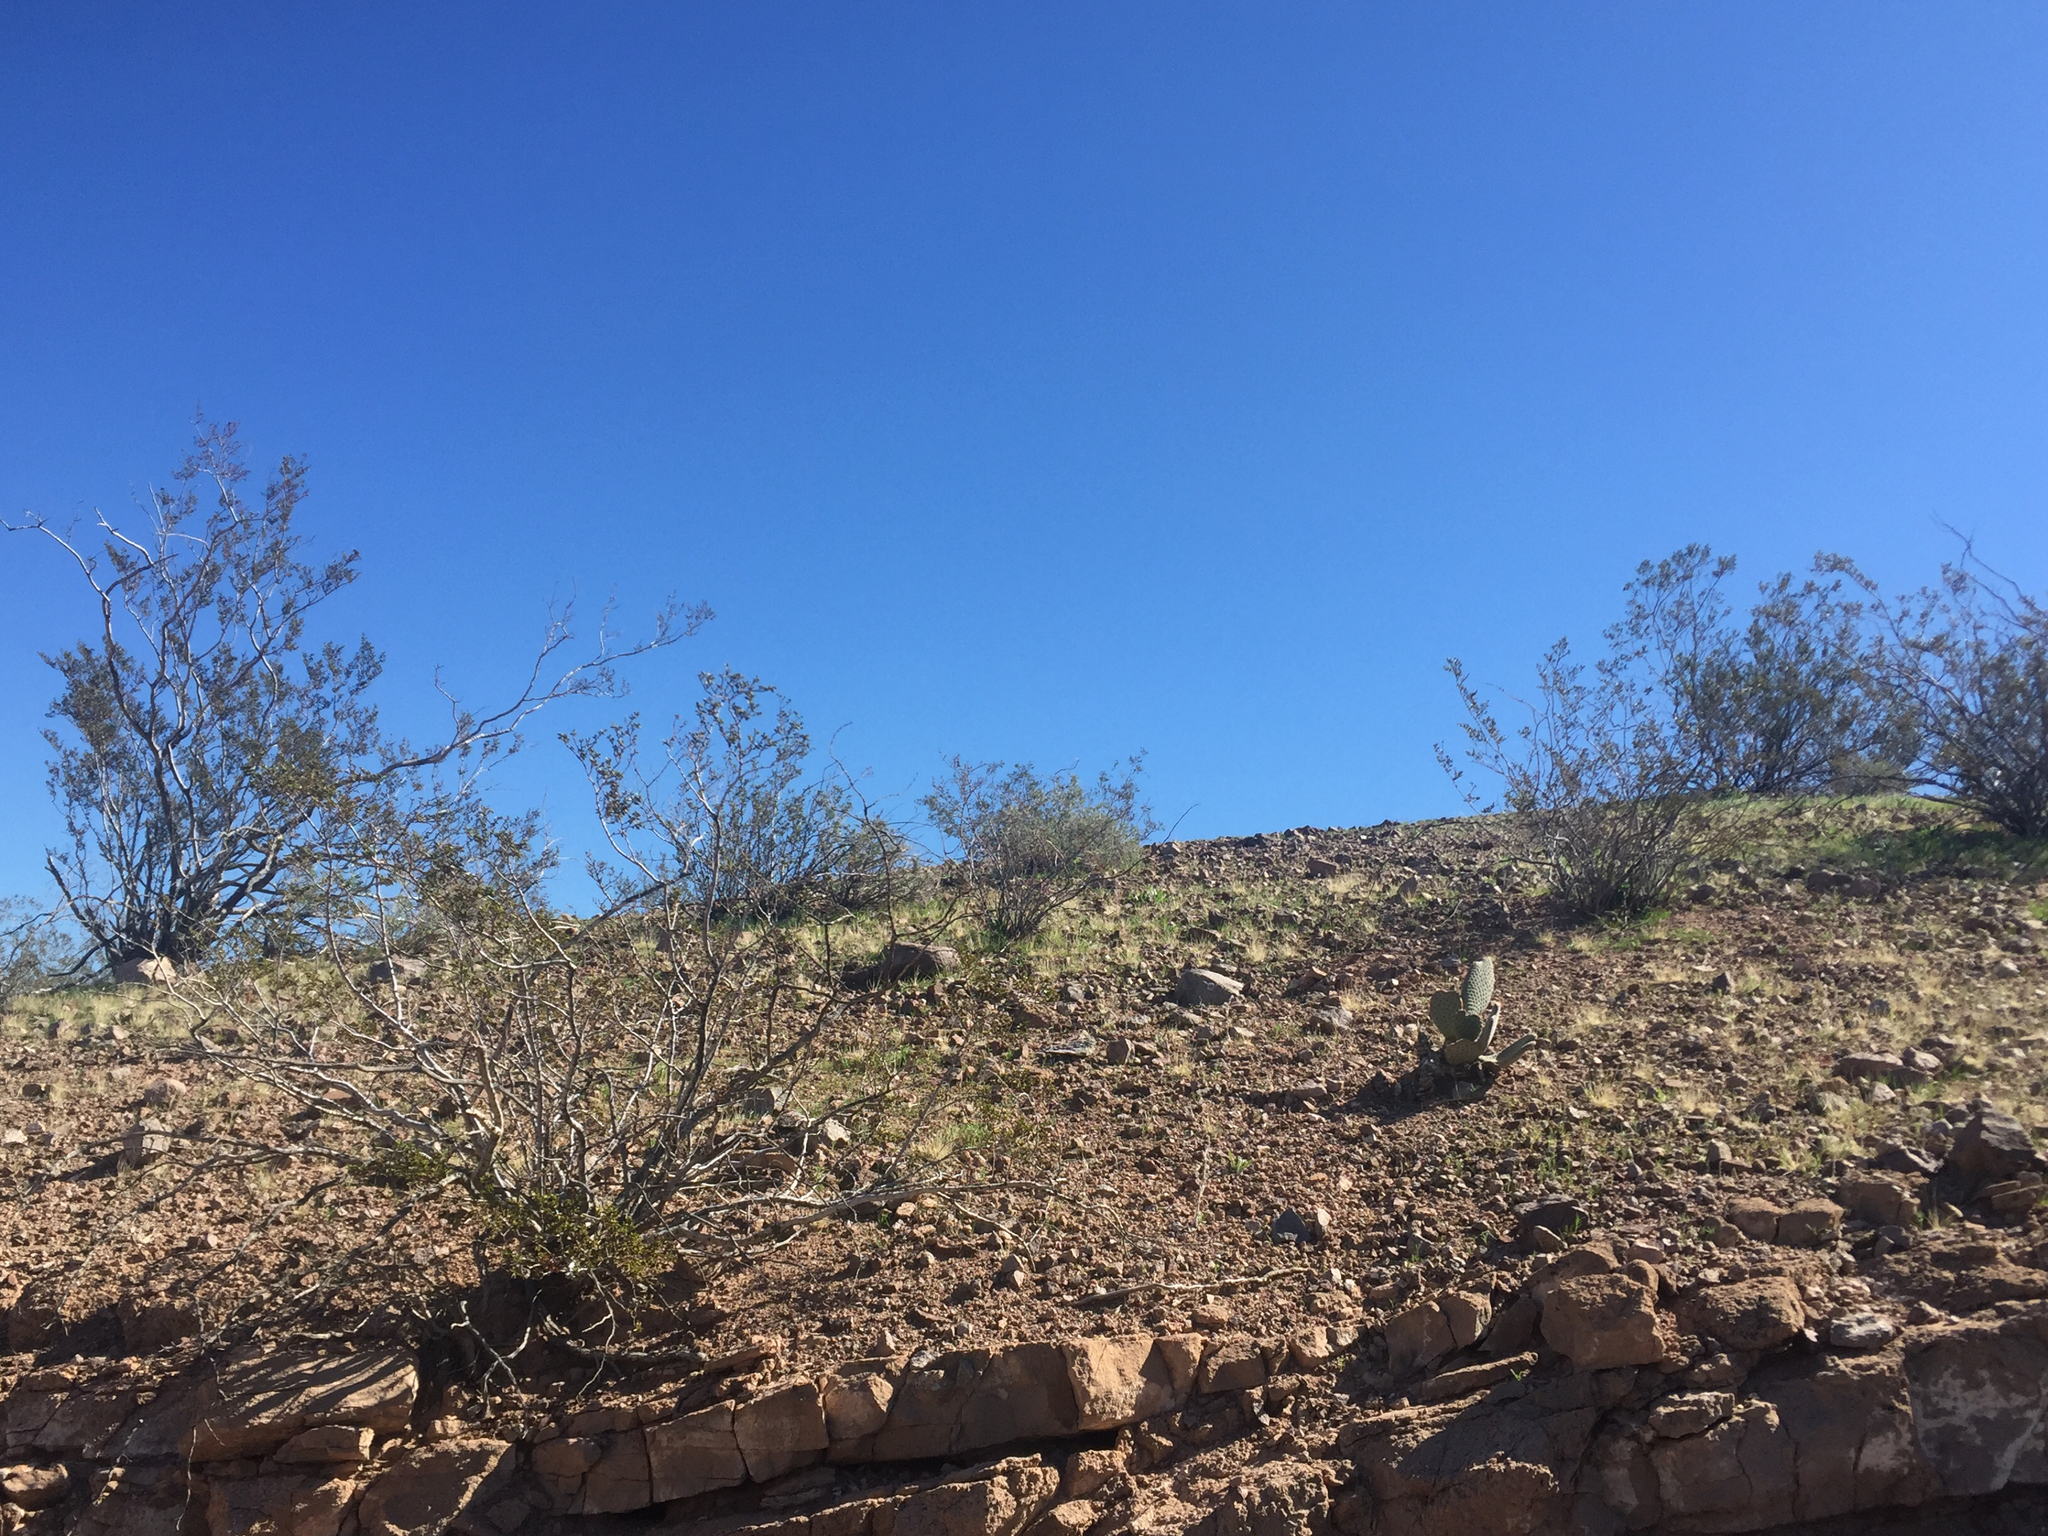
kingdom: Plantae
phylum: Tracheophyta
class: Magnoliopsida
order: Zygophyllales
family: Zygophyllaceae
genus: Larrea
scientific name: Larrea tridentata
